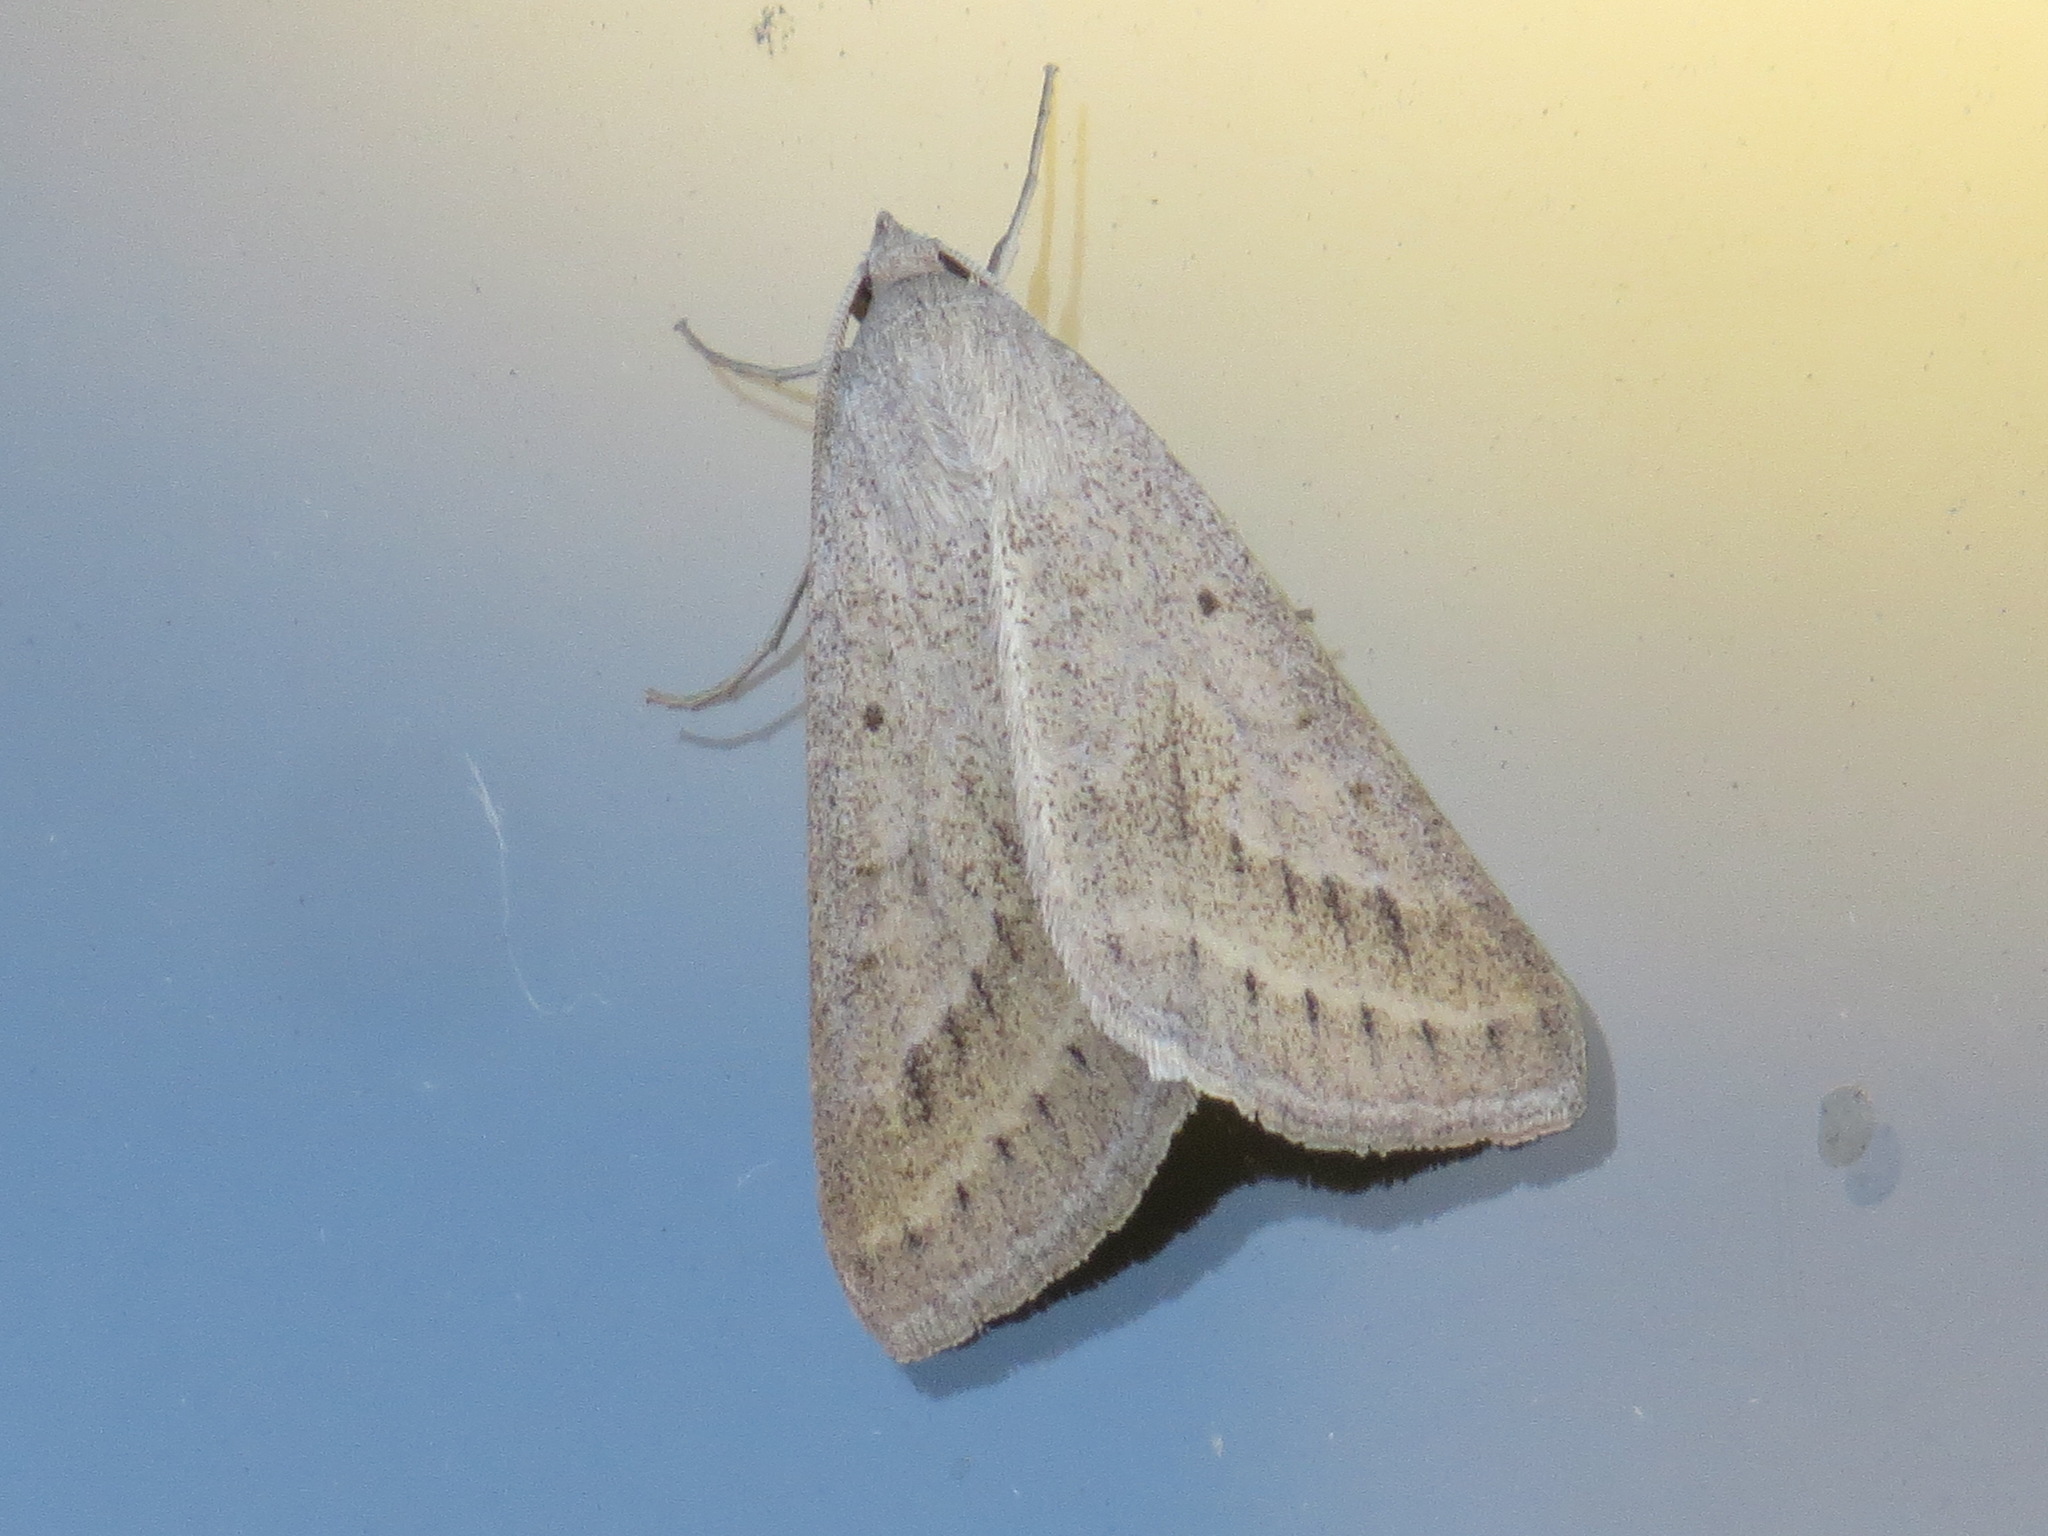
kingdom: Animalia
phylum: Arthropoda
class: Insecta
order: Lepidoptera
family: Erebidae
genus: Caenurgia
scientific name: Caenurgia togataria
